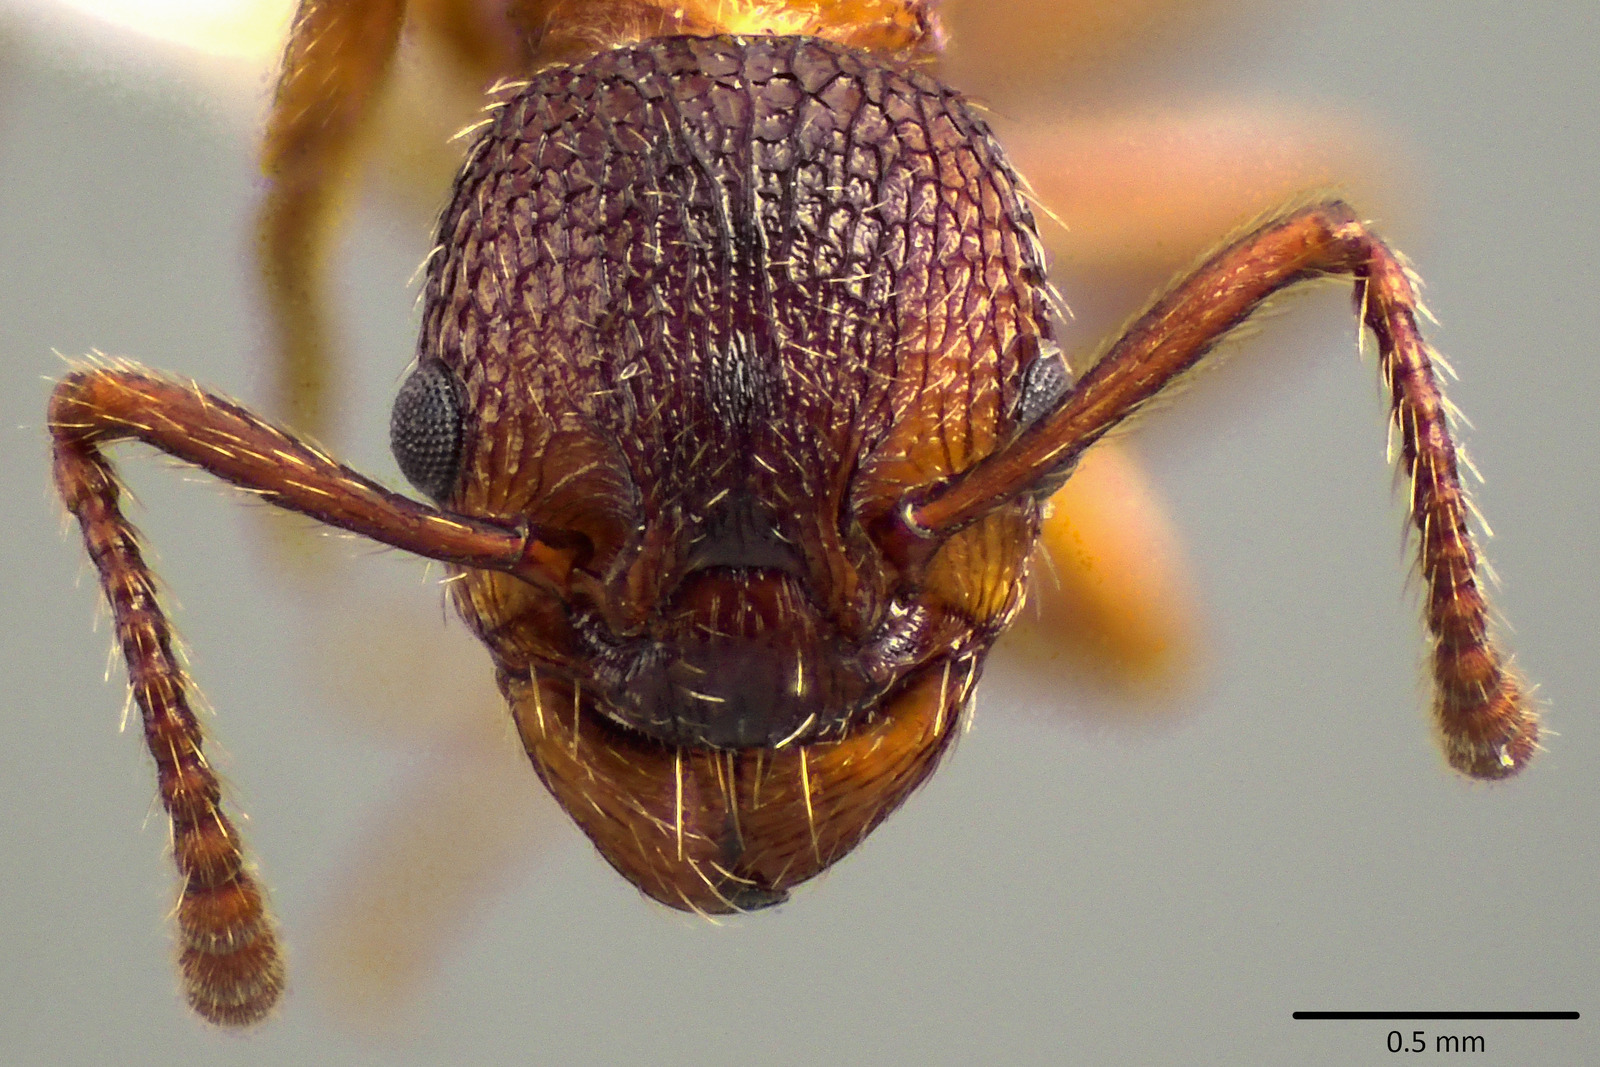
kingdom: Animalia
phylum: Arthropoda
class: Insecta
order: Hymenoptera
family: Formicidae
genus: Myrmica
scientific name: Myrmica americana
